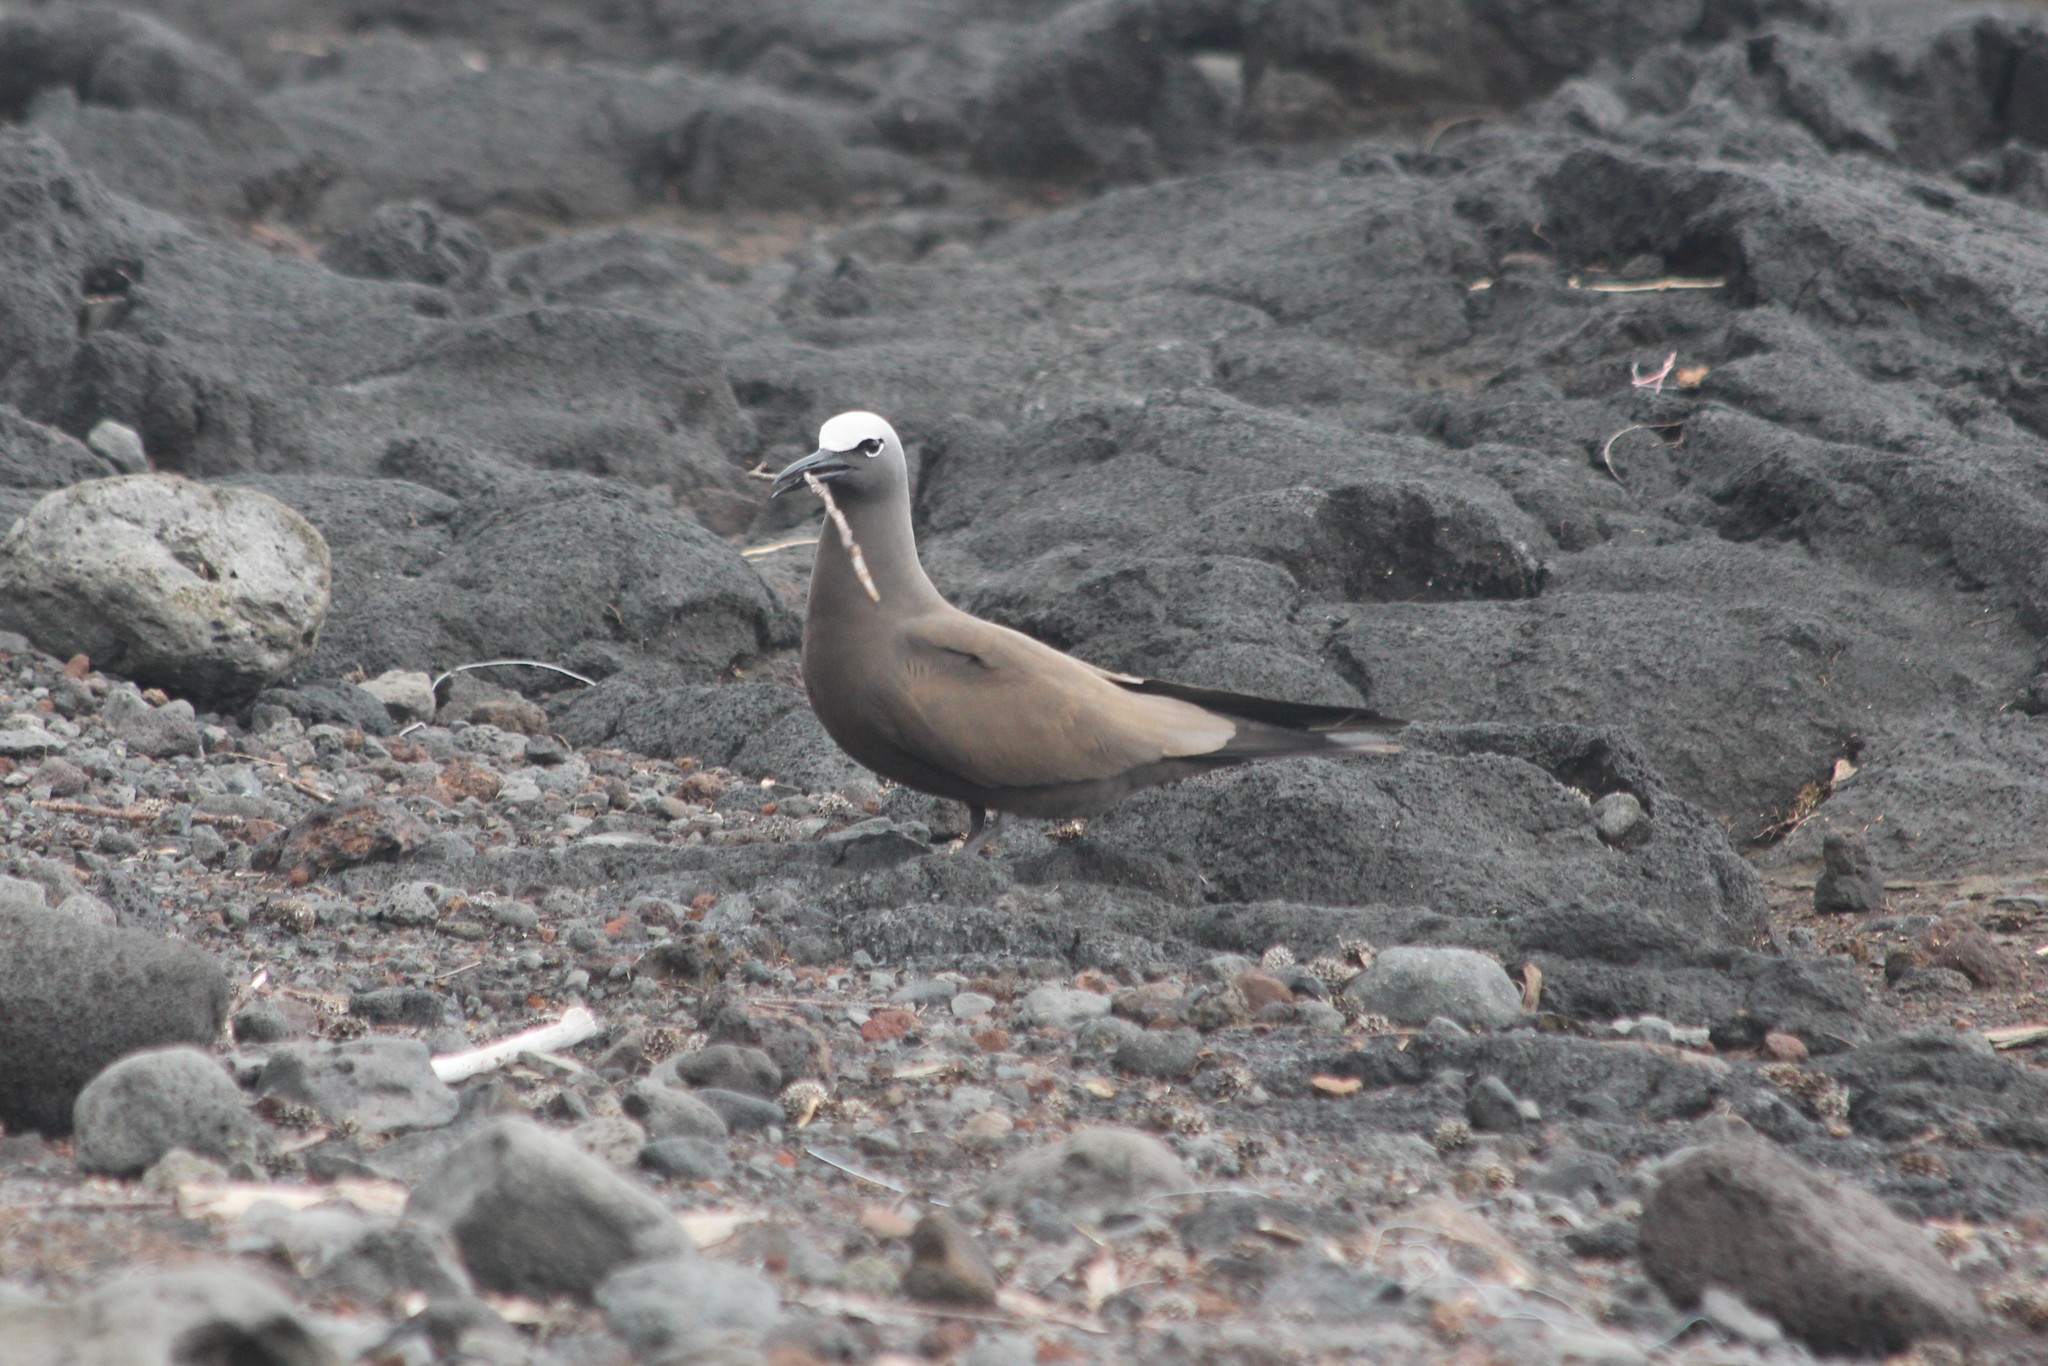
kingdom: Animalia
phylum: Chordata
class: Aves
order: Charadriiformes
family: Laridae
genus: Anous
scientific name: Anous stolidus
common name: Brown noddy
